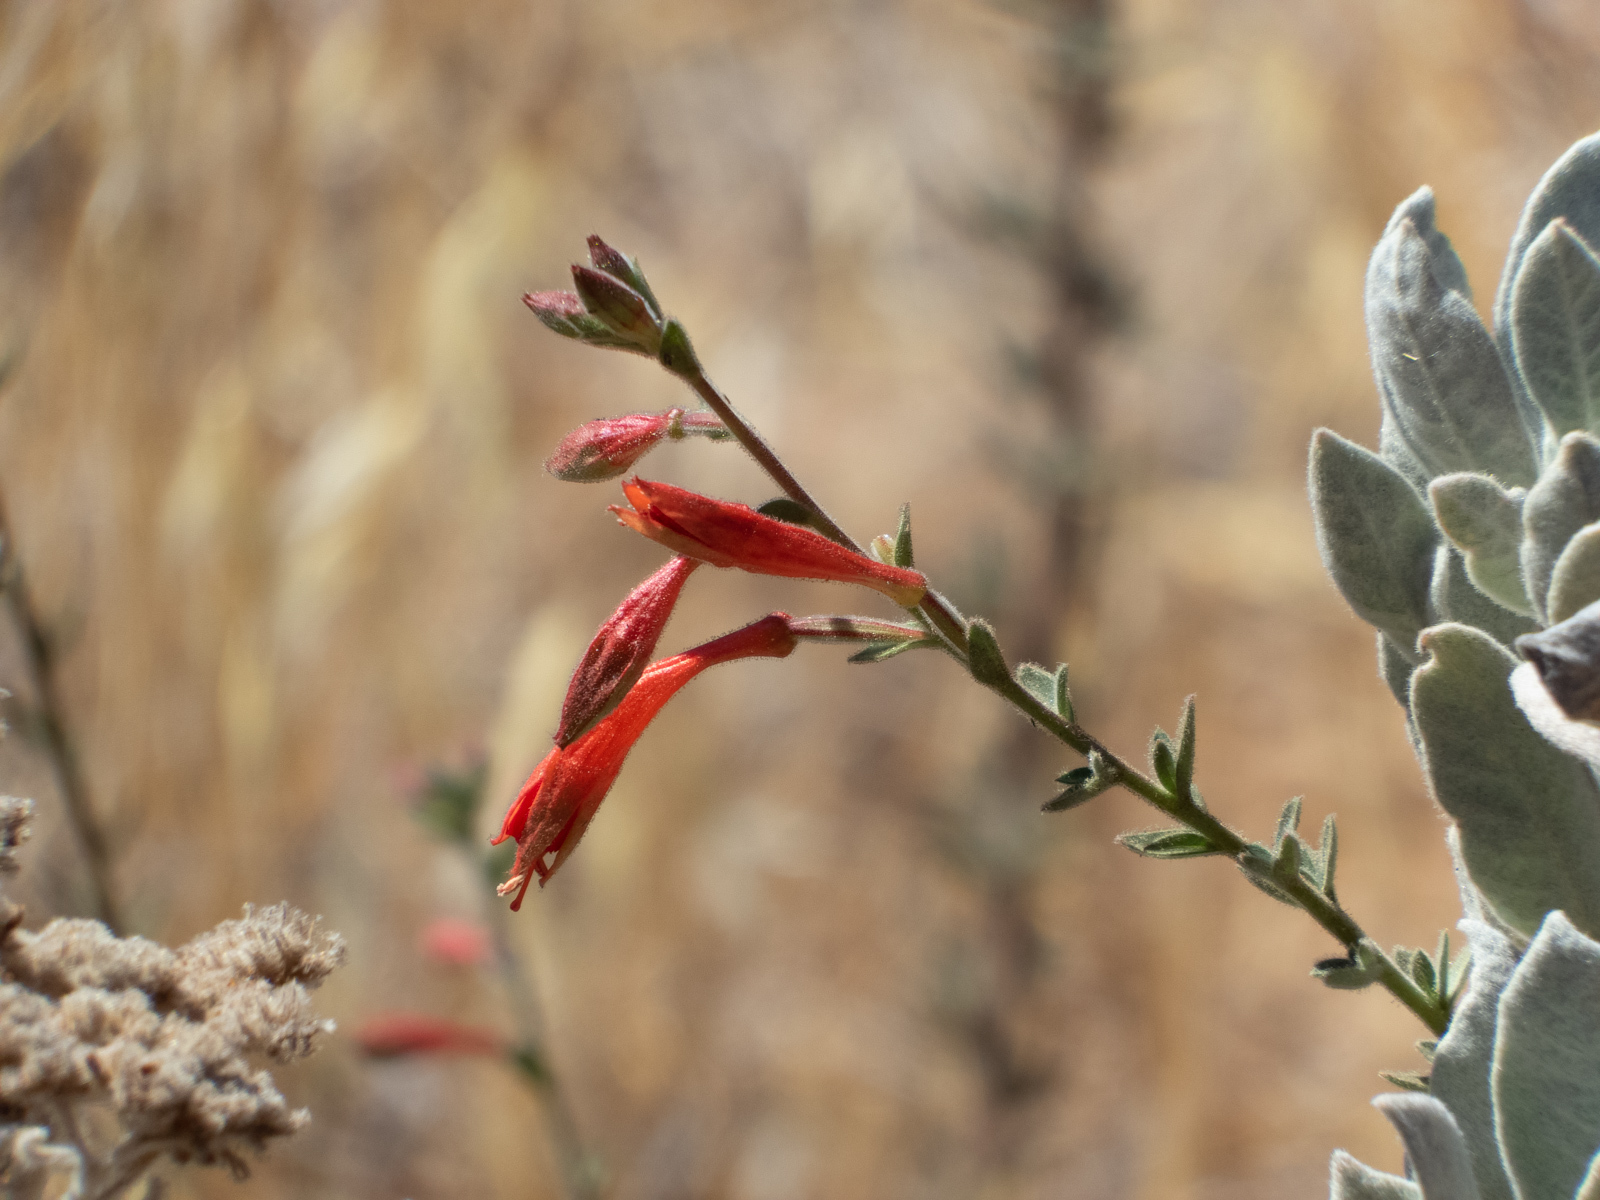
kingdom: Plantae
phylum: Tracheophyta
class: Magnoliopsida
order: Myrtales
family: Onagraceae
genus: Epilobium
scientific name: Epilobium canum
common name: California-fuchsia
